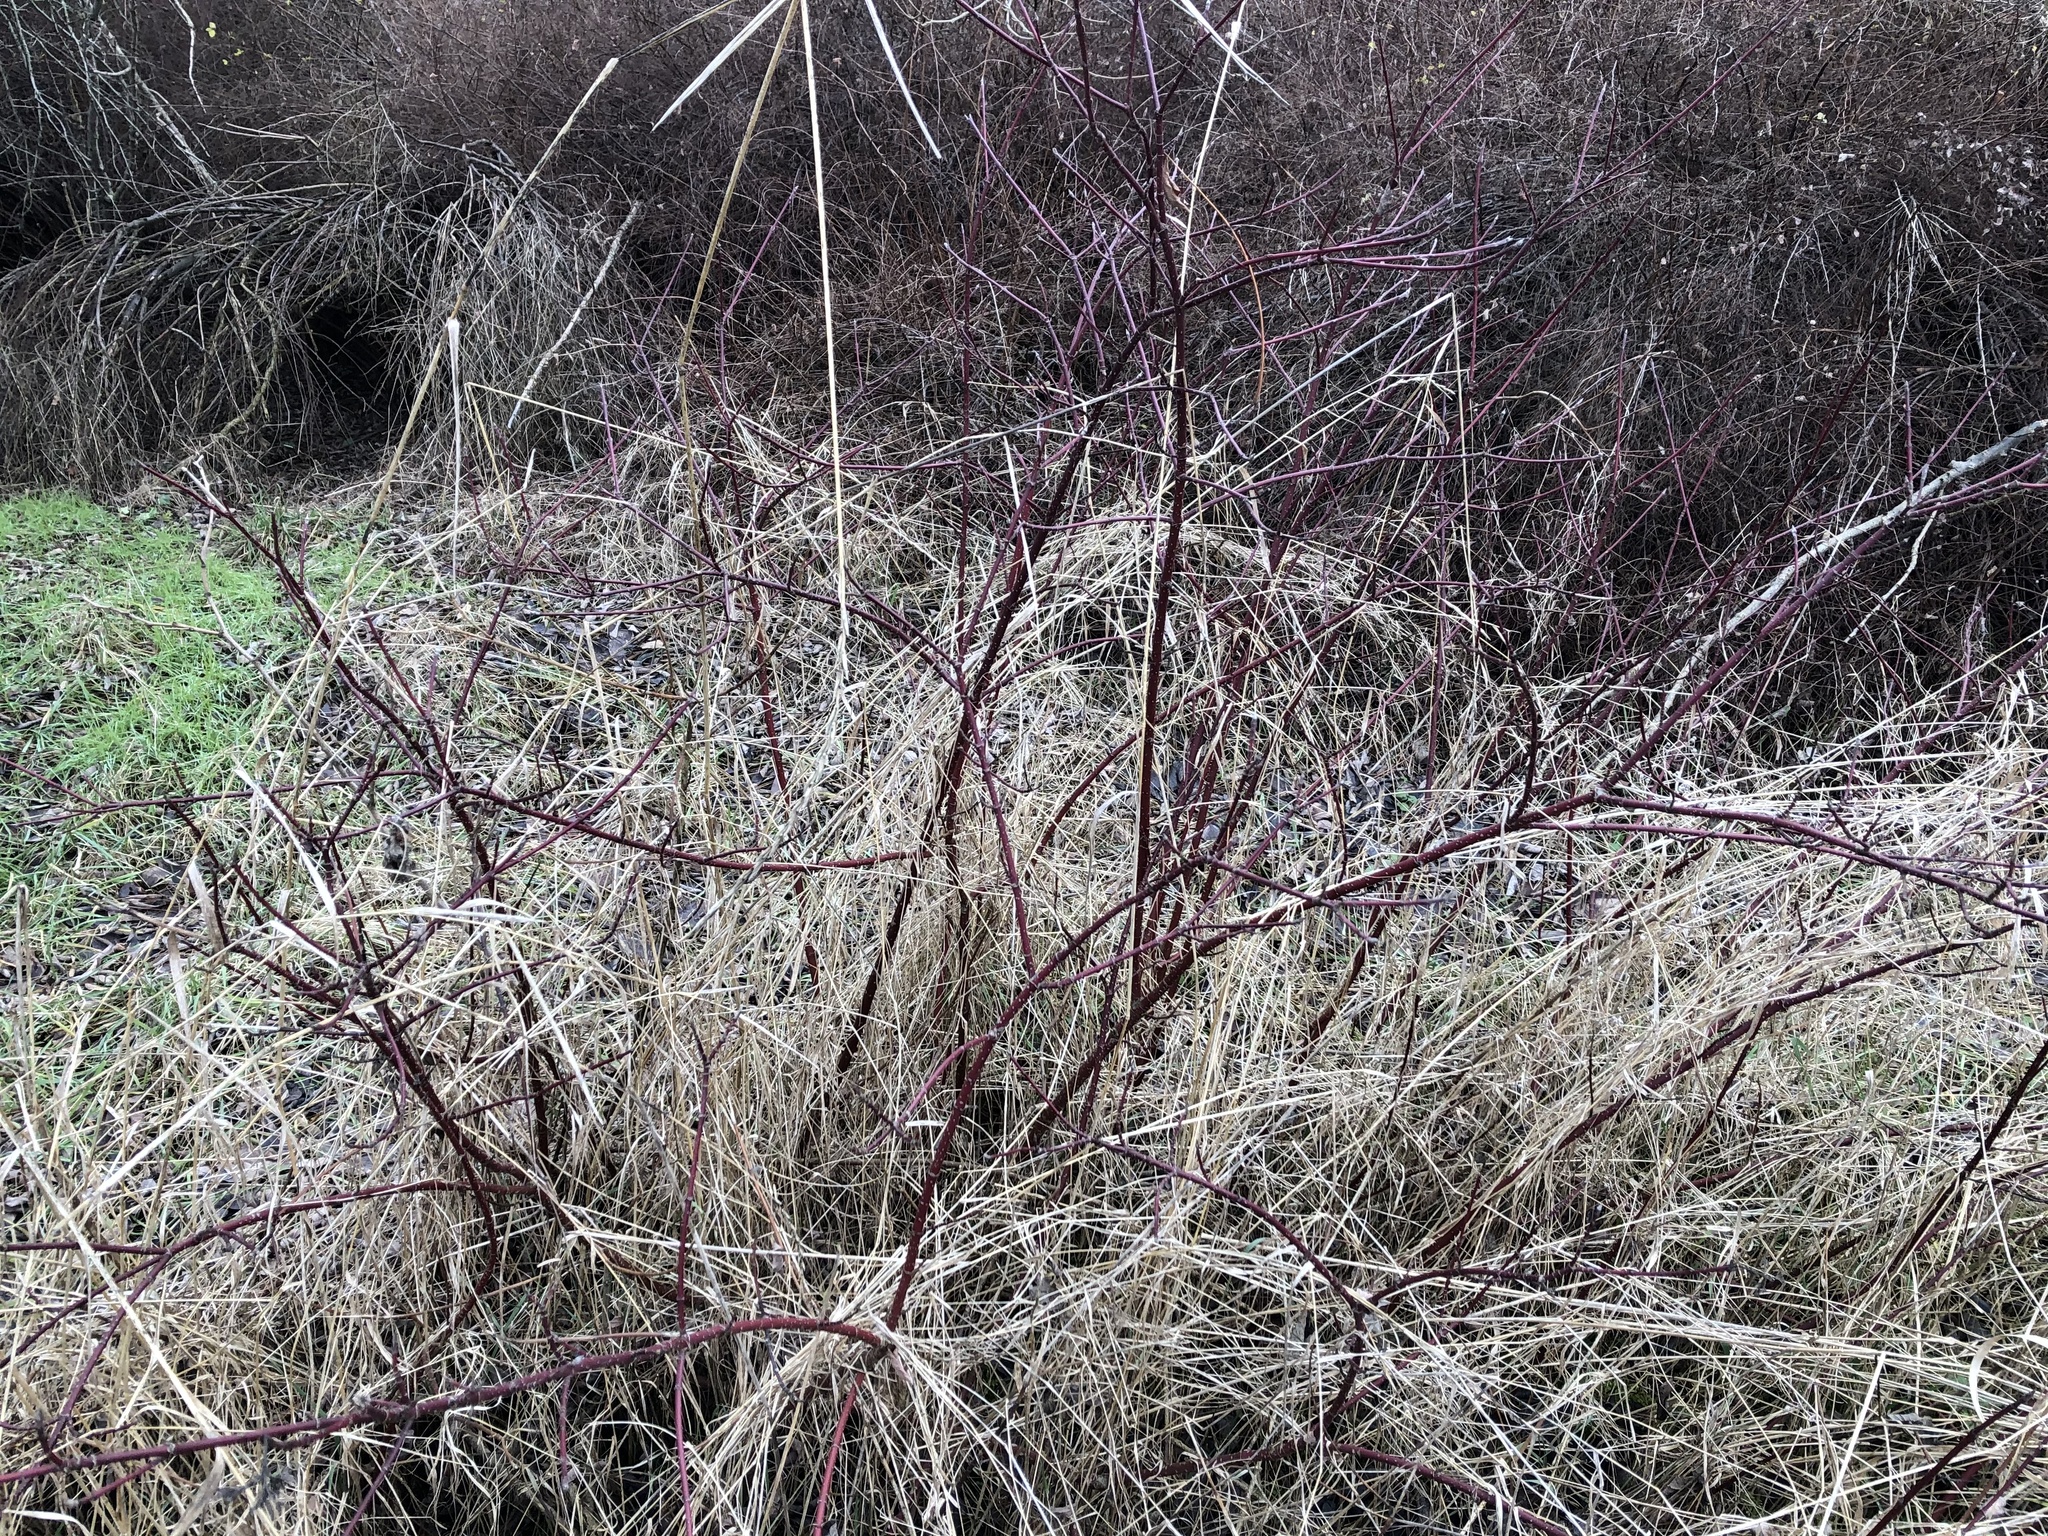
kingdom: Plantae
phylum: Tracheophyta
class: Magnoliopsida
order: Cornales
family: Cornaceae
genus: Cornus
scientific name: Cornus alba
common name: White dogwood
